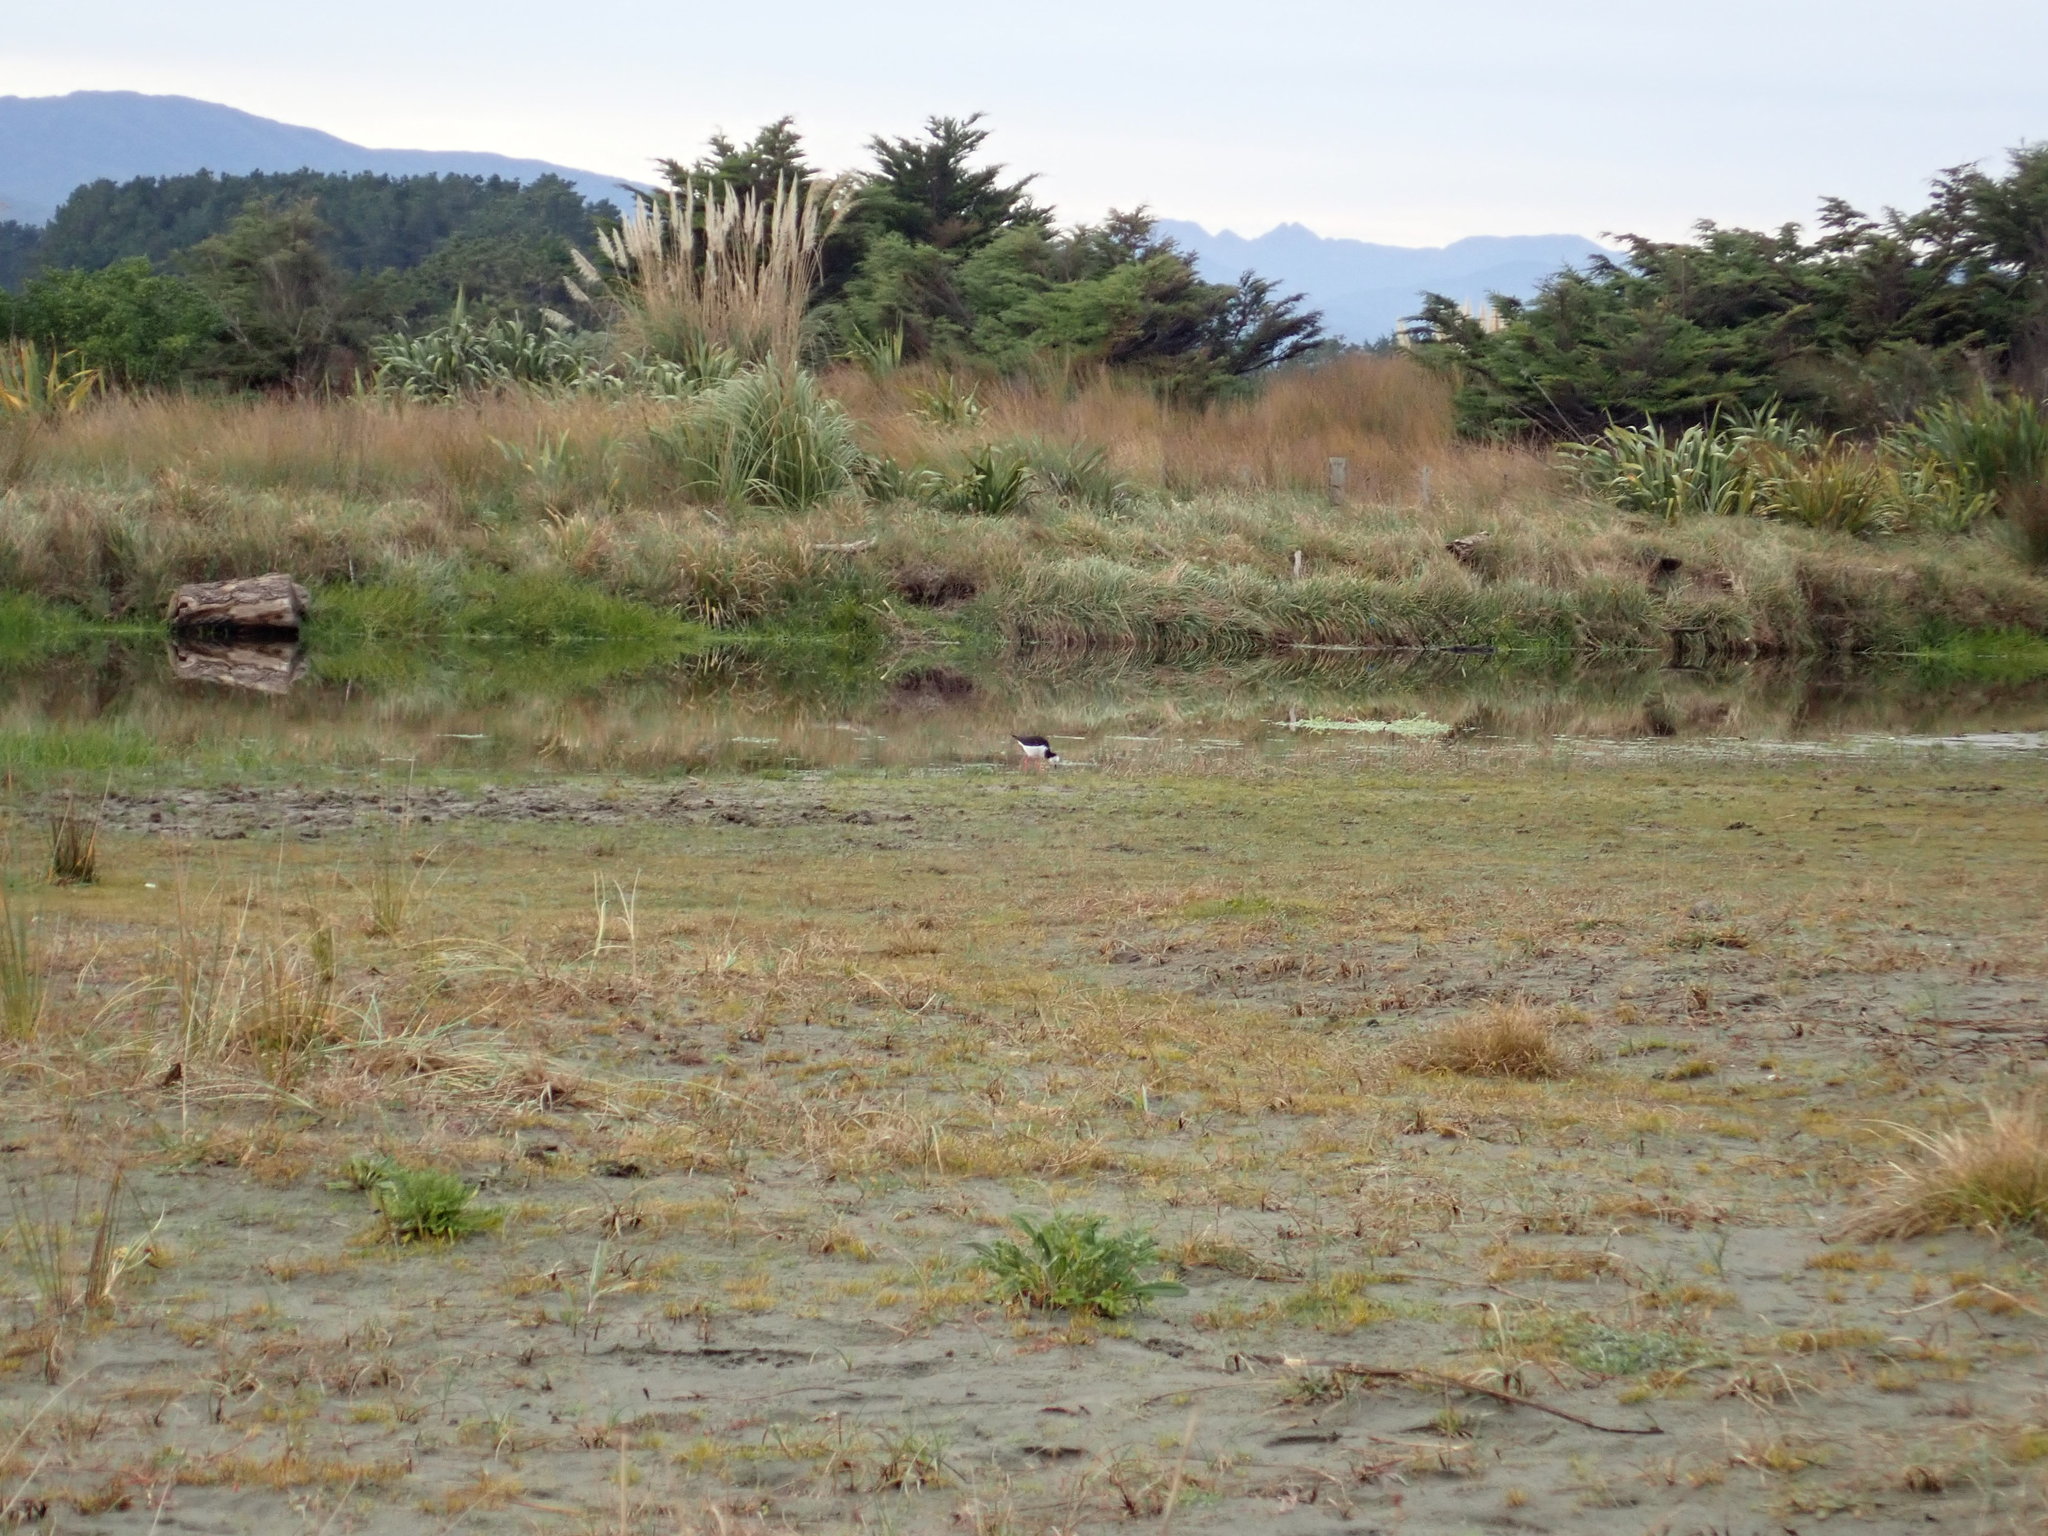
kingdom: Animalia
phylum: Chordata
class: Aves
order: Charadriiformes
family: Recurvirostridae
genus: Himantopus
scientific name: Himantopus leucocephalus
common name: White-headed stilt
